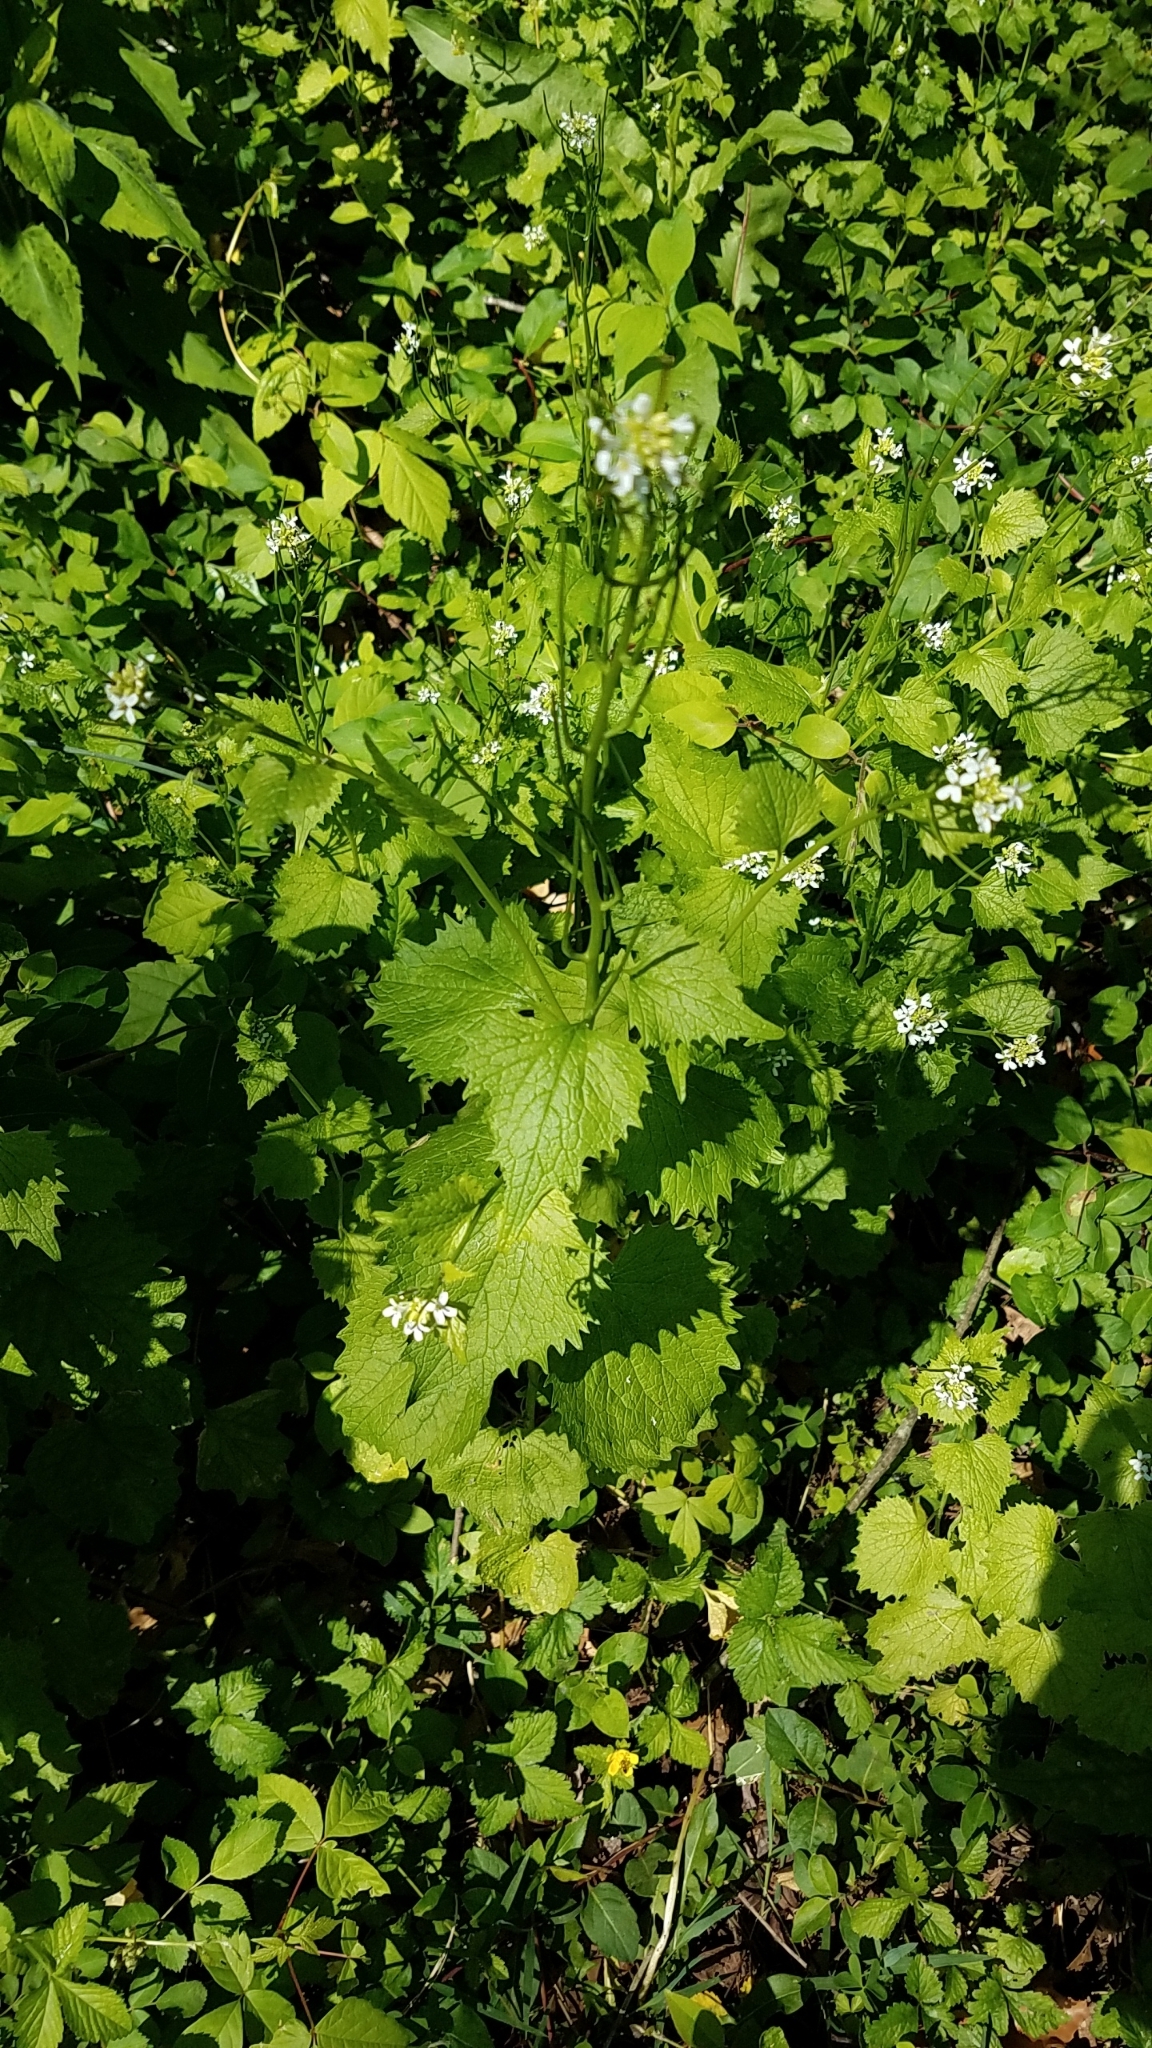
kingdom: Plantae
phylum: Tracheophyta
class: Magnoliopsida
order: Brassicales
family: Brassicaceae
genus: Alliaria
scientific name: Alliaria petiolata
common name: Garlic mustard
